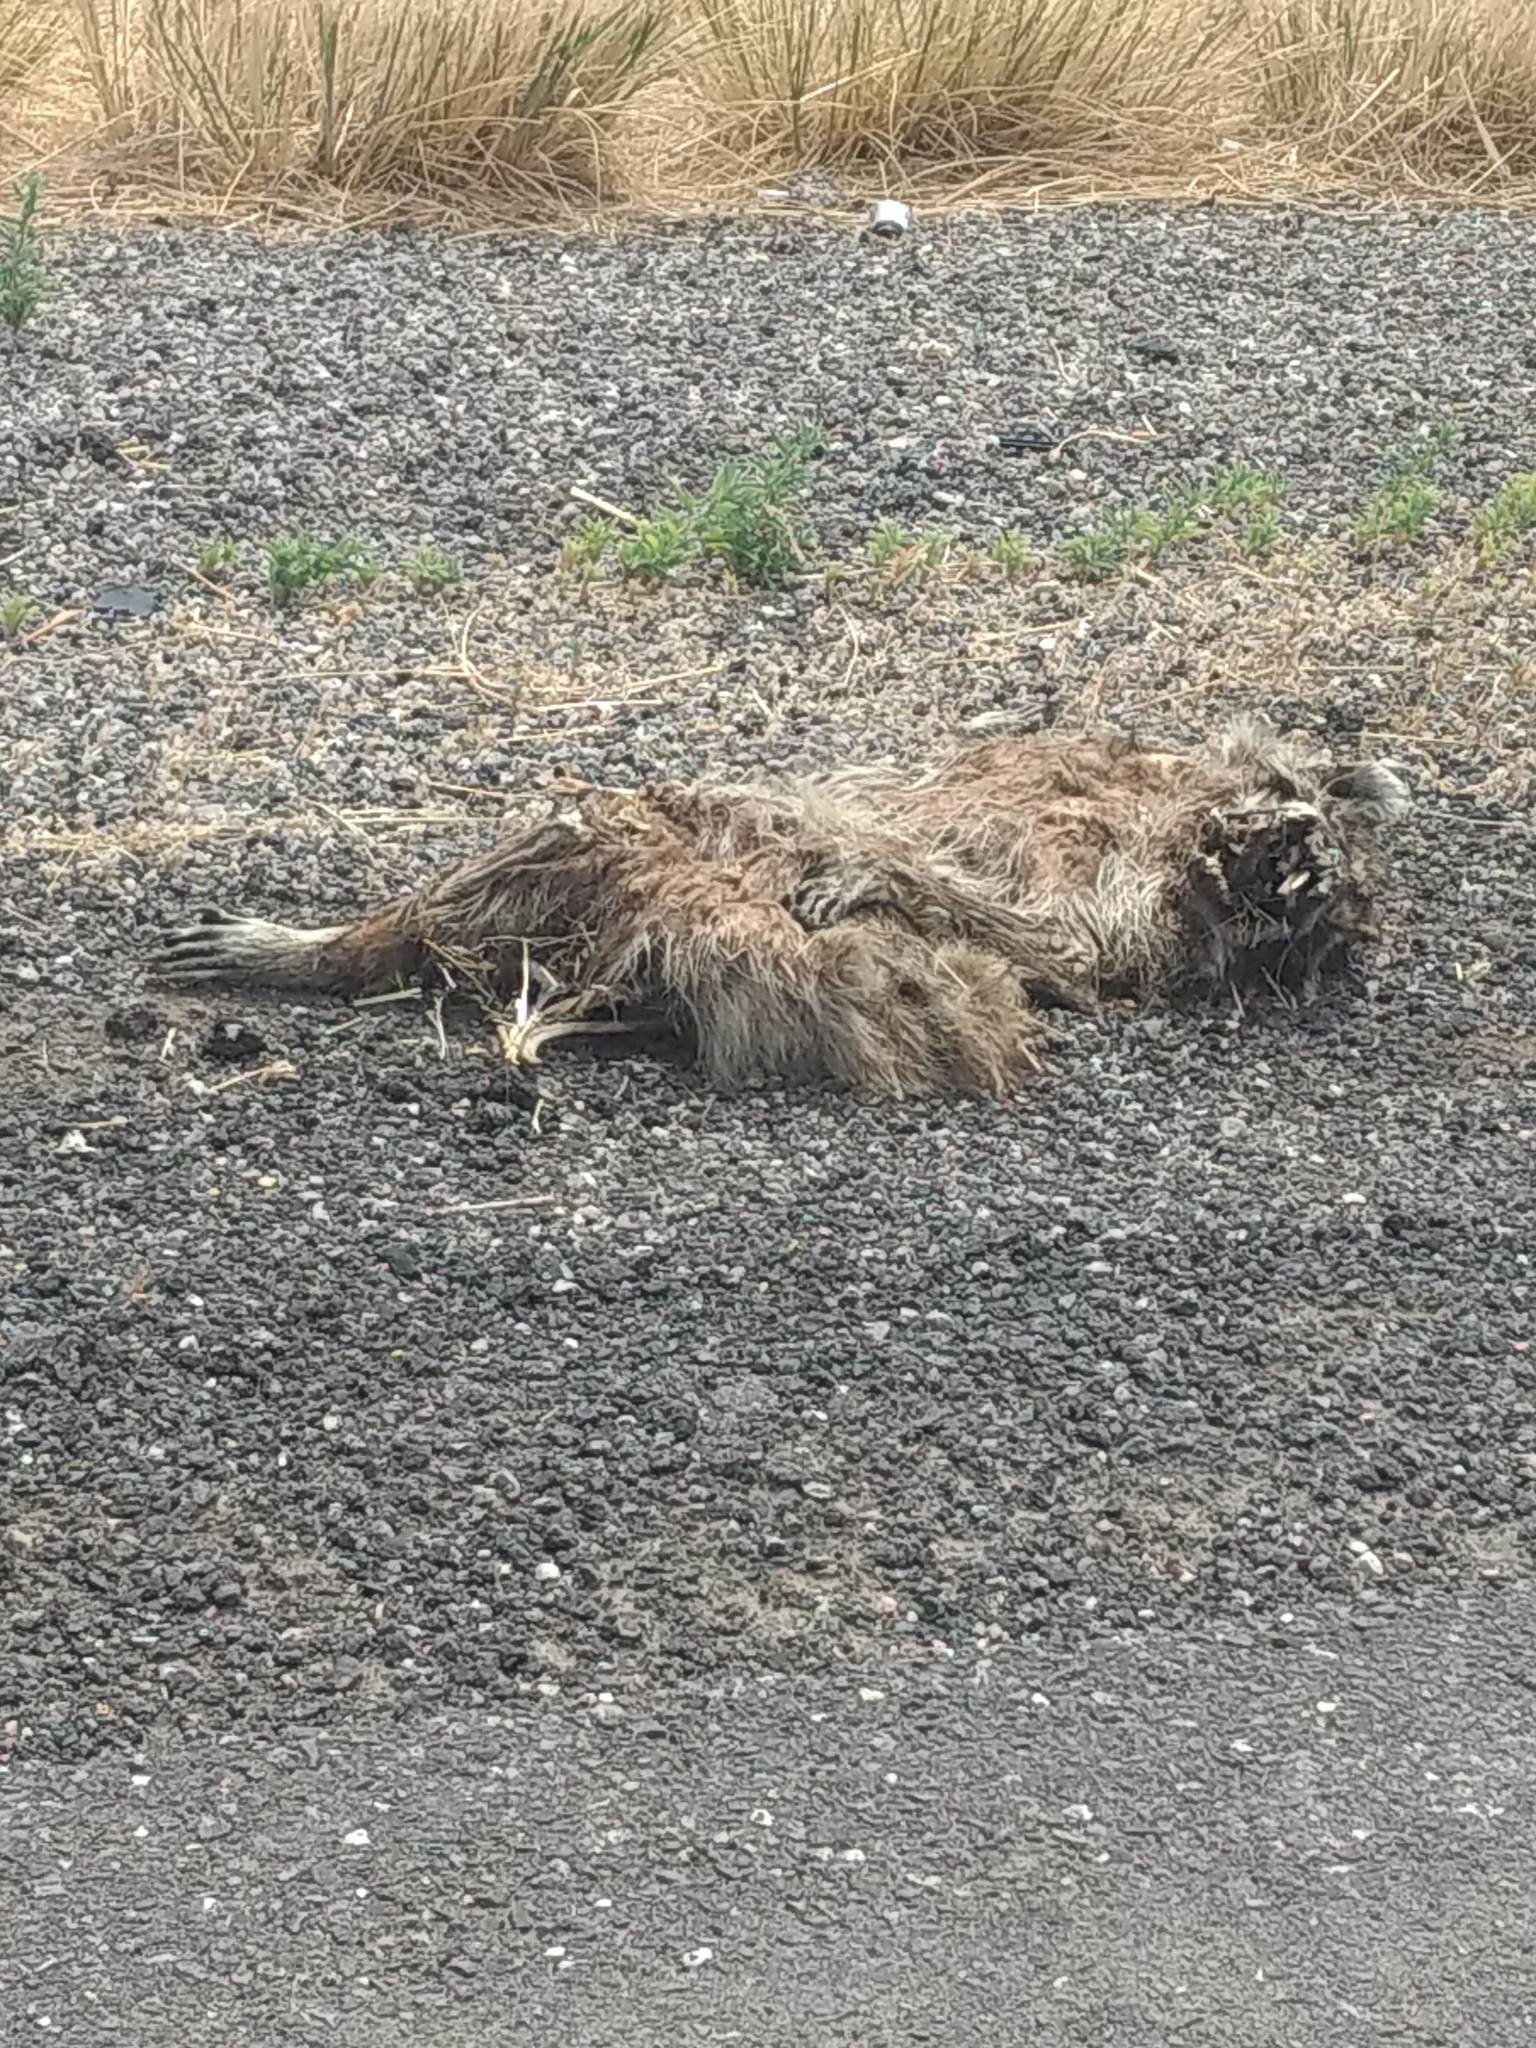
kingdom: Animalia
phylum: Chordata
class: Mammalia
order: Carnivora
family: Procyonidae
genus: Procyon
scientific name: Procyon lotor
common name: Raccoon
